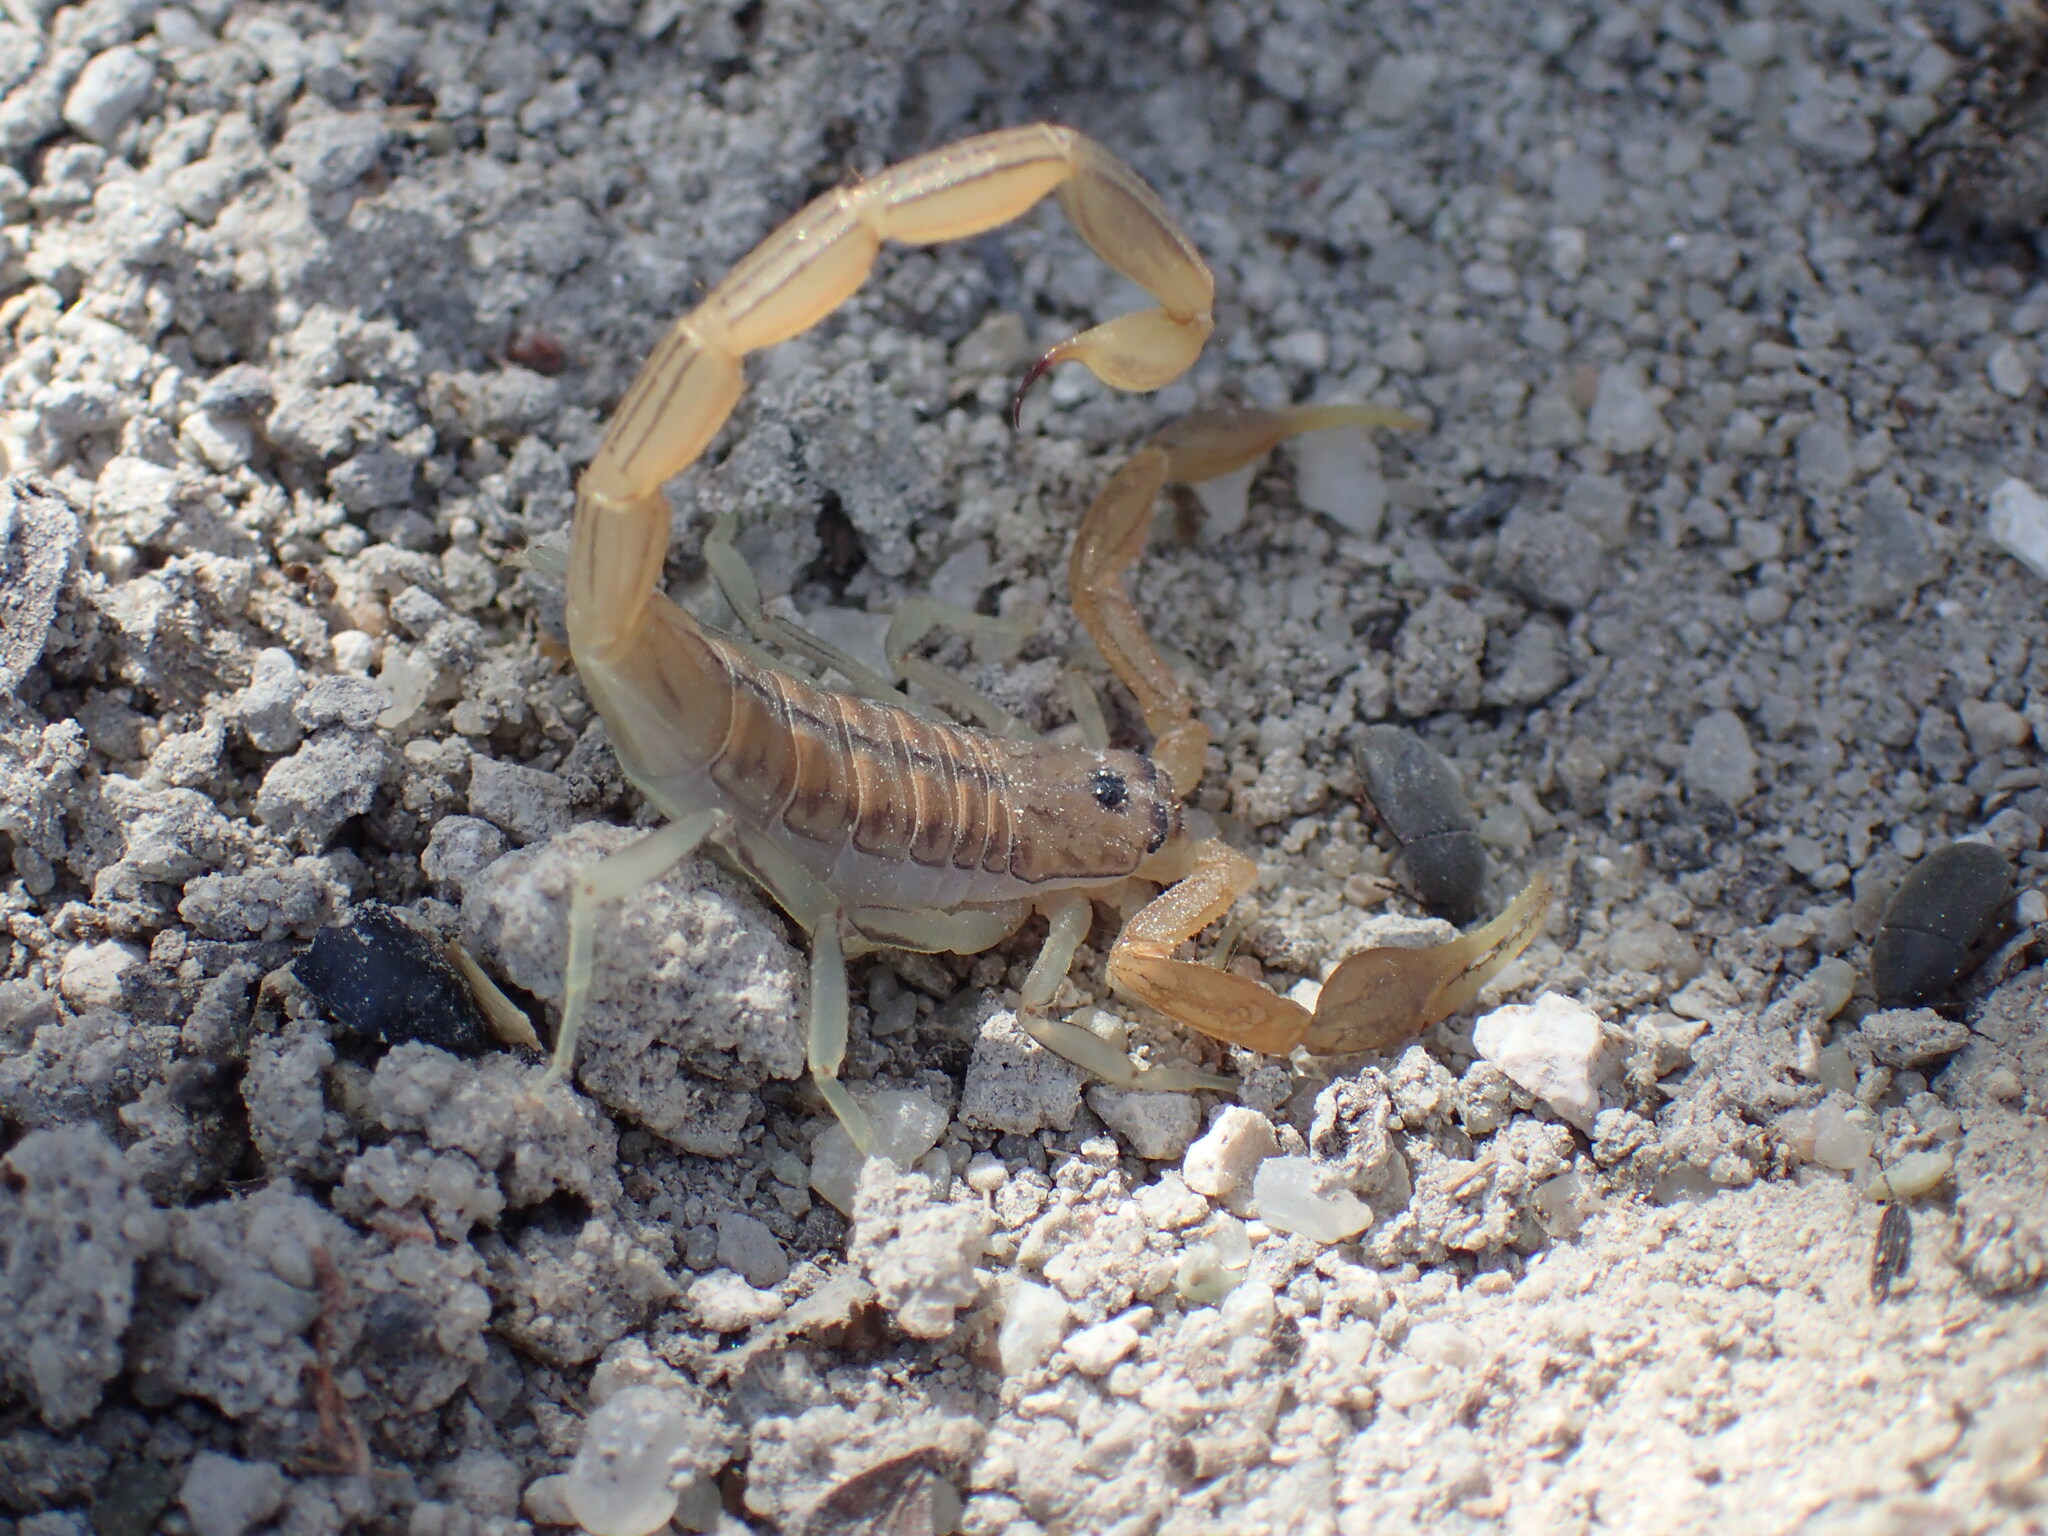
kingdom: Animalia
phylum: Arthropoda
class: Arachnida
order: Scorpiones
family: Buthidae
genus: Uroplectes
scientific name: Uroplectes planimanus
